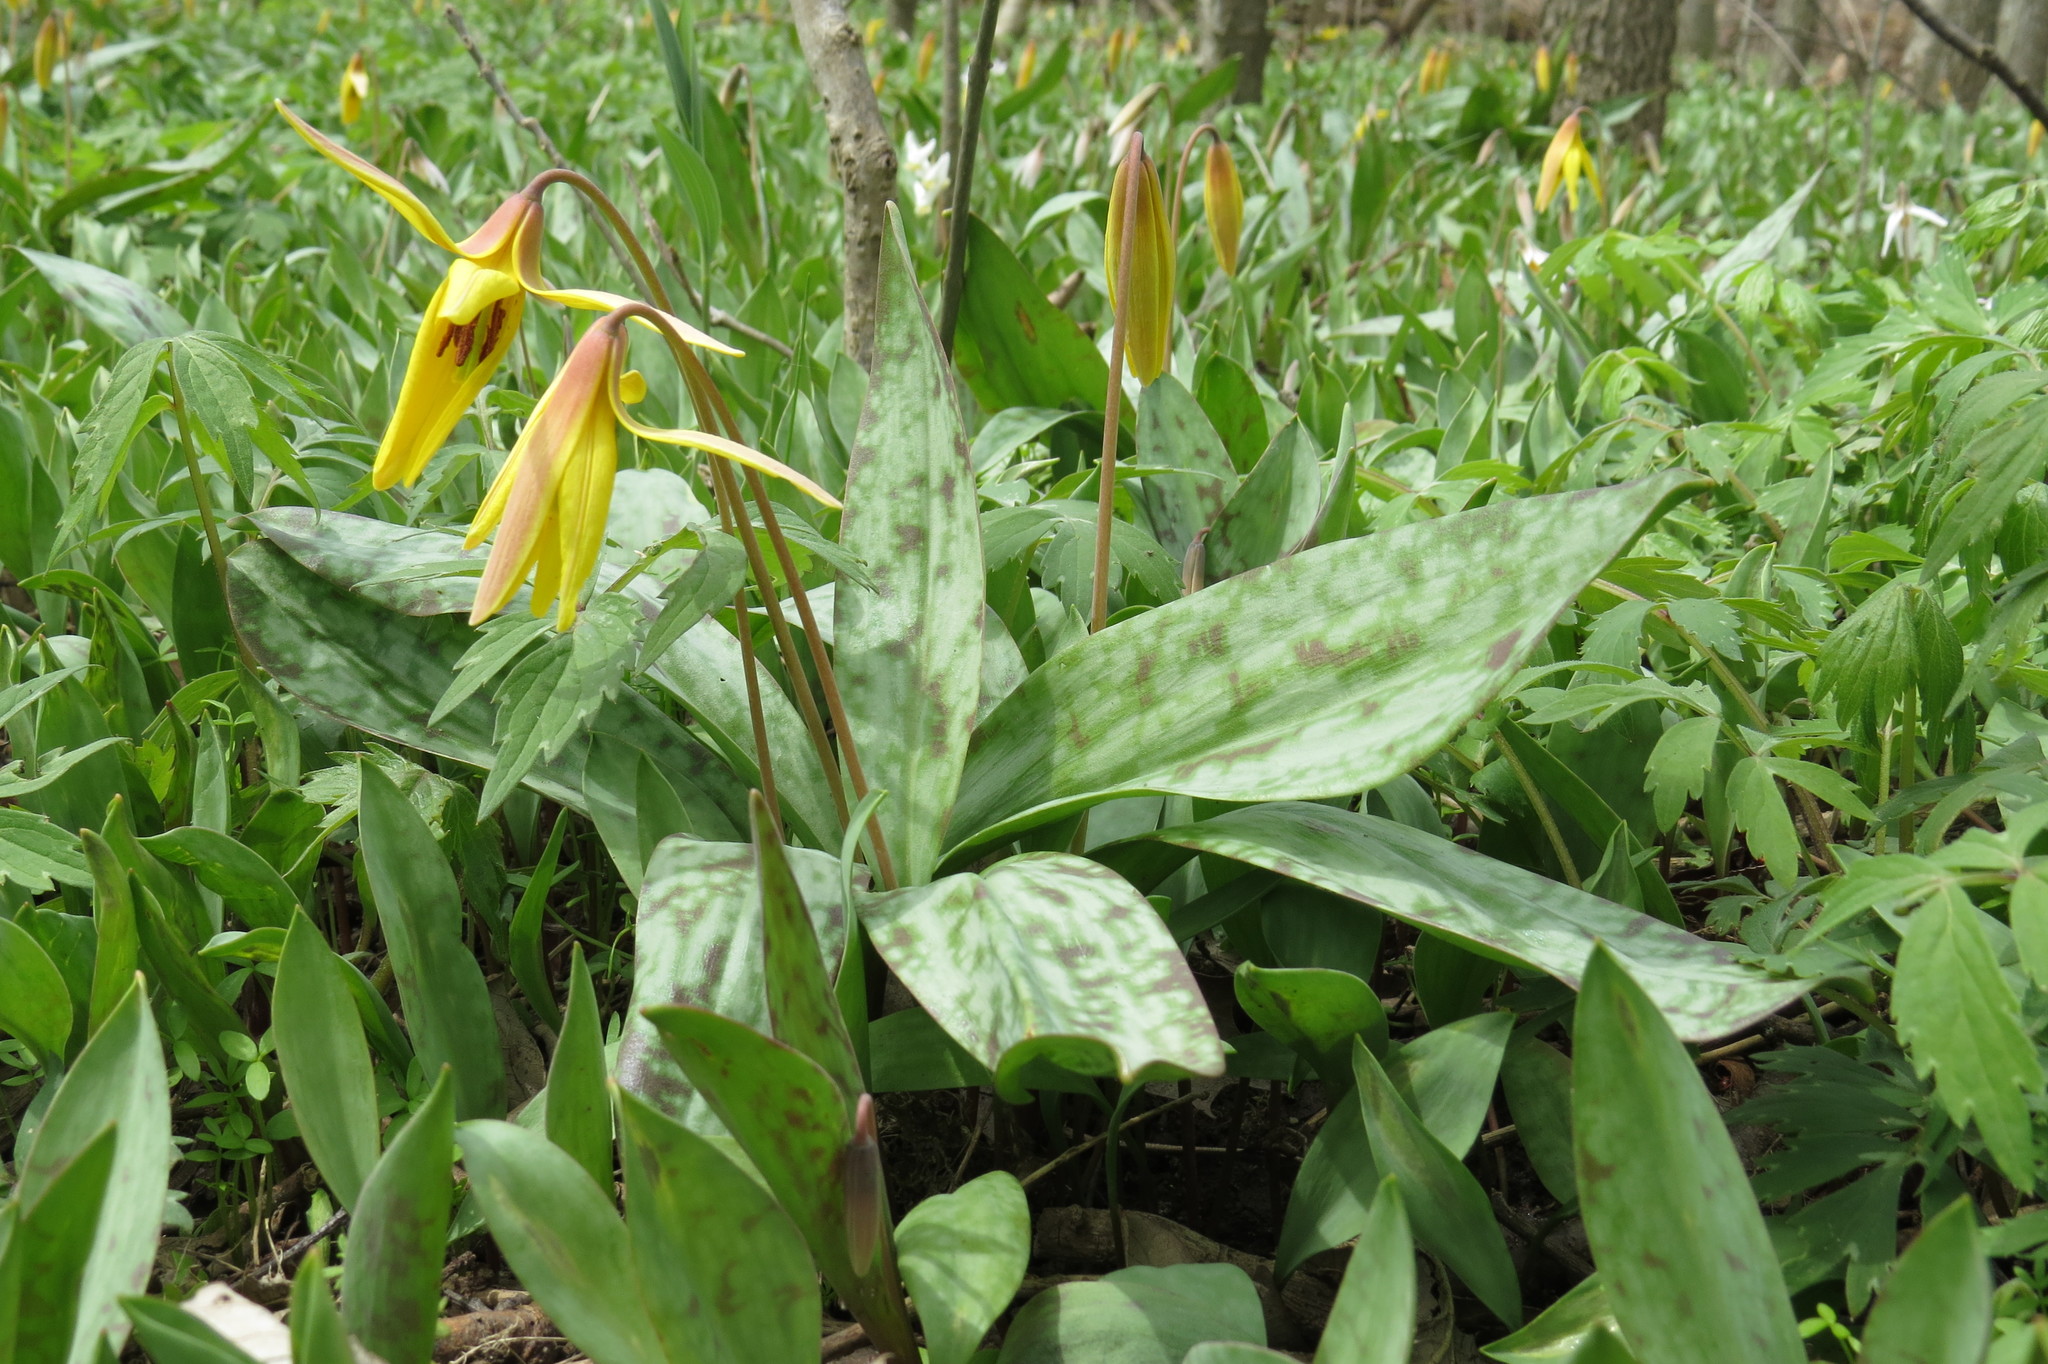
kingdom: Plantae
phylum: Tracheophyta
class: Liliopsida
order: Liliales
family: Liliaceae
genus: Erythronium
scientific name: Erythronium americanum
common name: Yellow adder's-tongue
